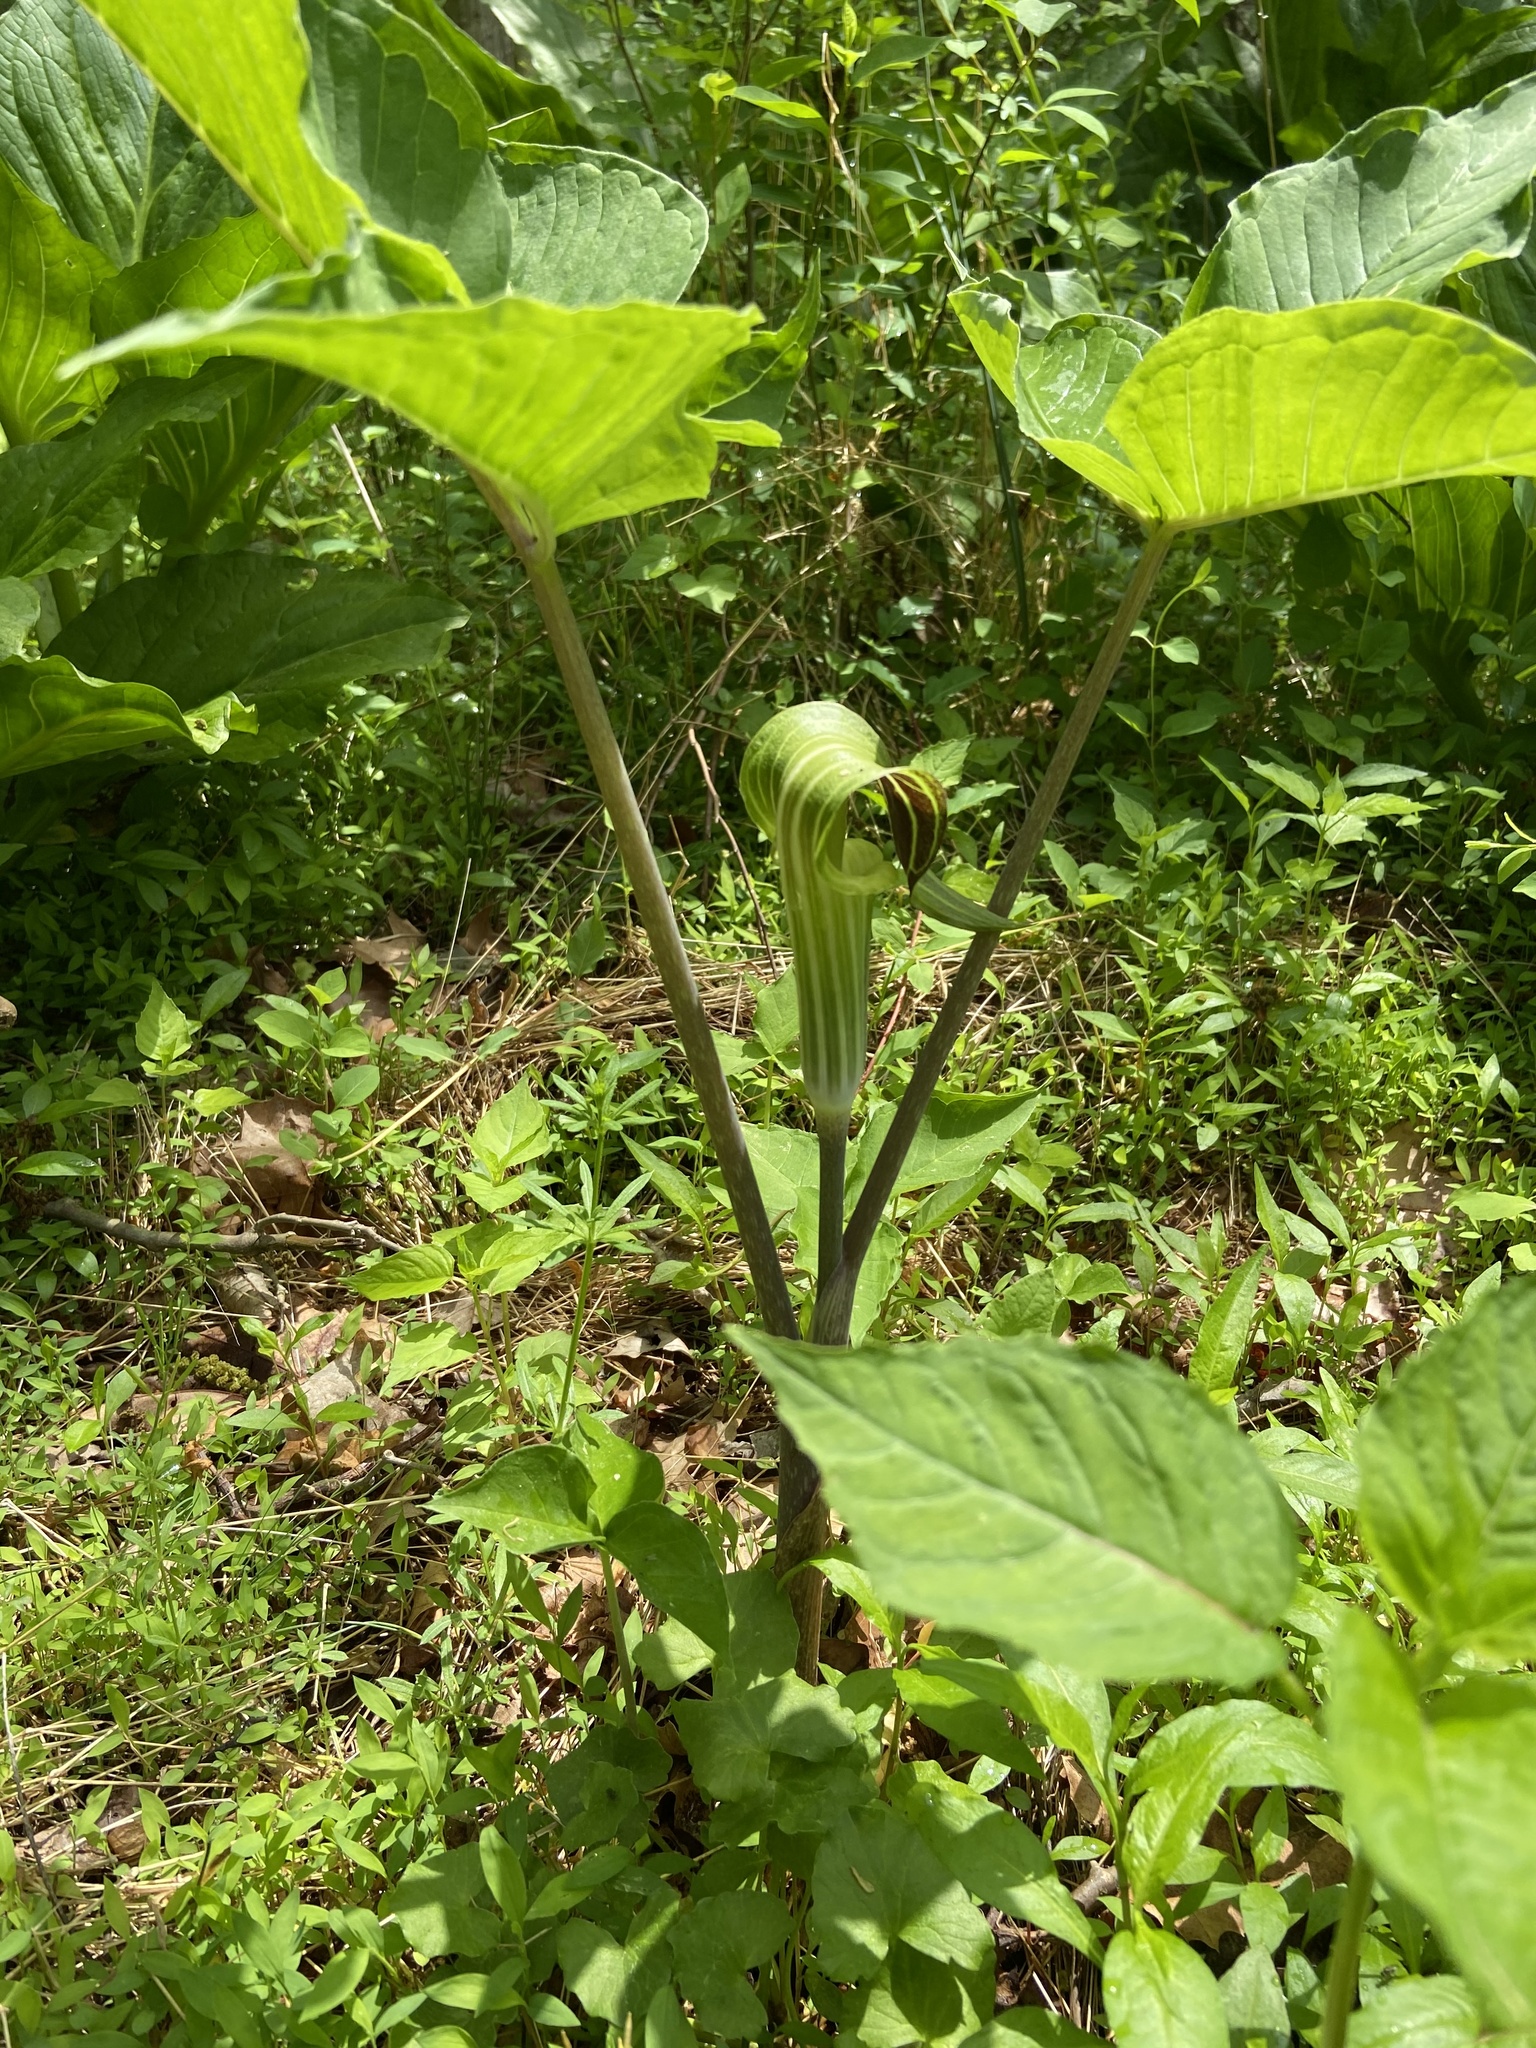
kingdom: Plantae
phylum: Tracheophyta
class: Liliopsida
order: Alismatales
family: Araceae
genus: Arisaema
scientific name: Arisaema triphyllum
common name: Jack-in-the-pulpit
